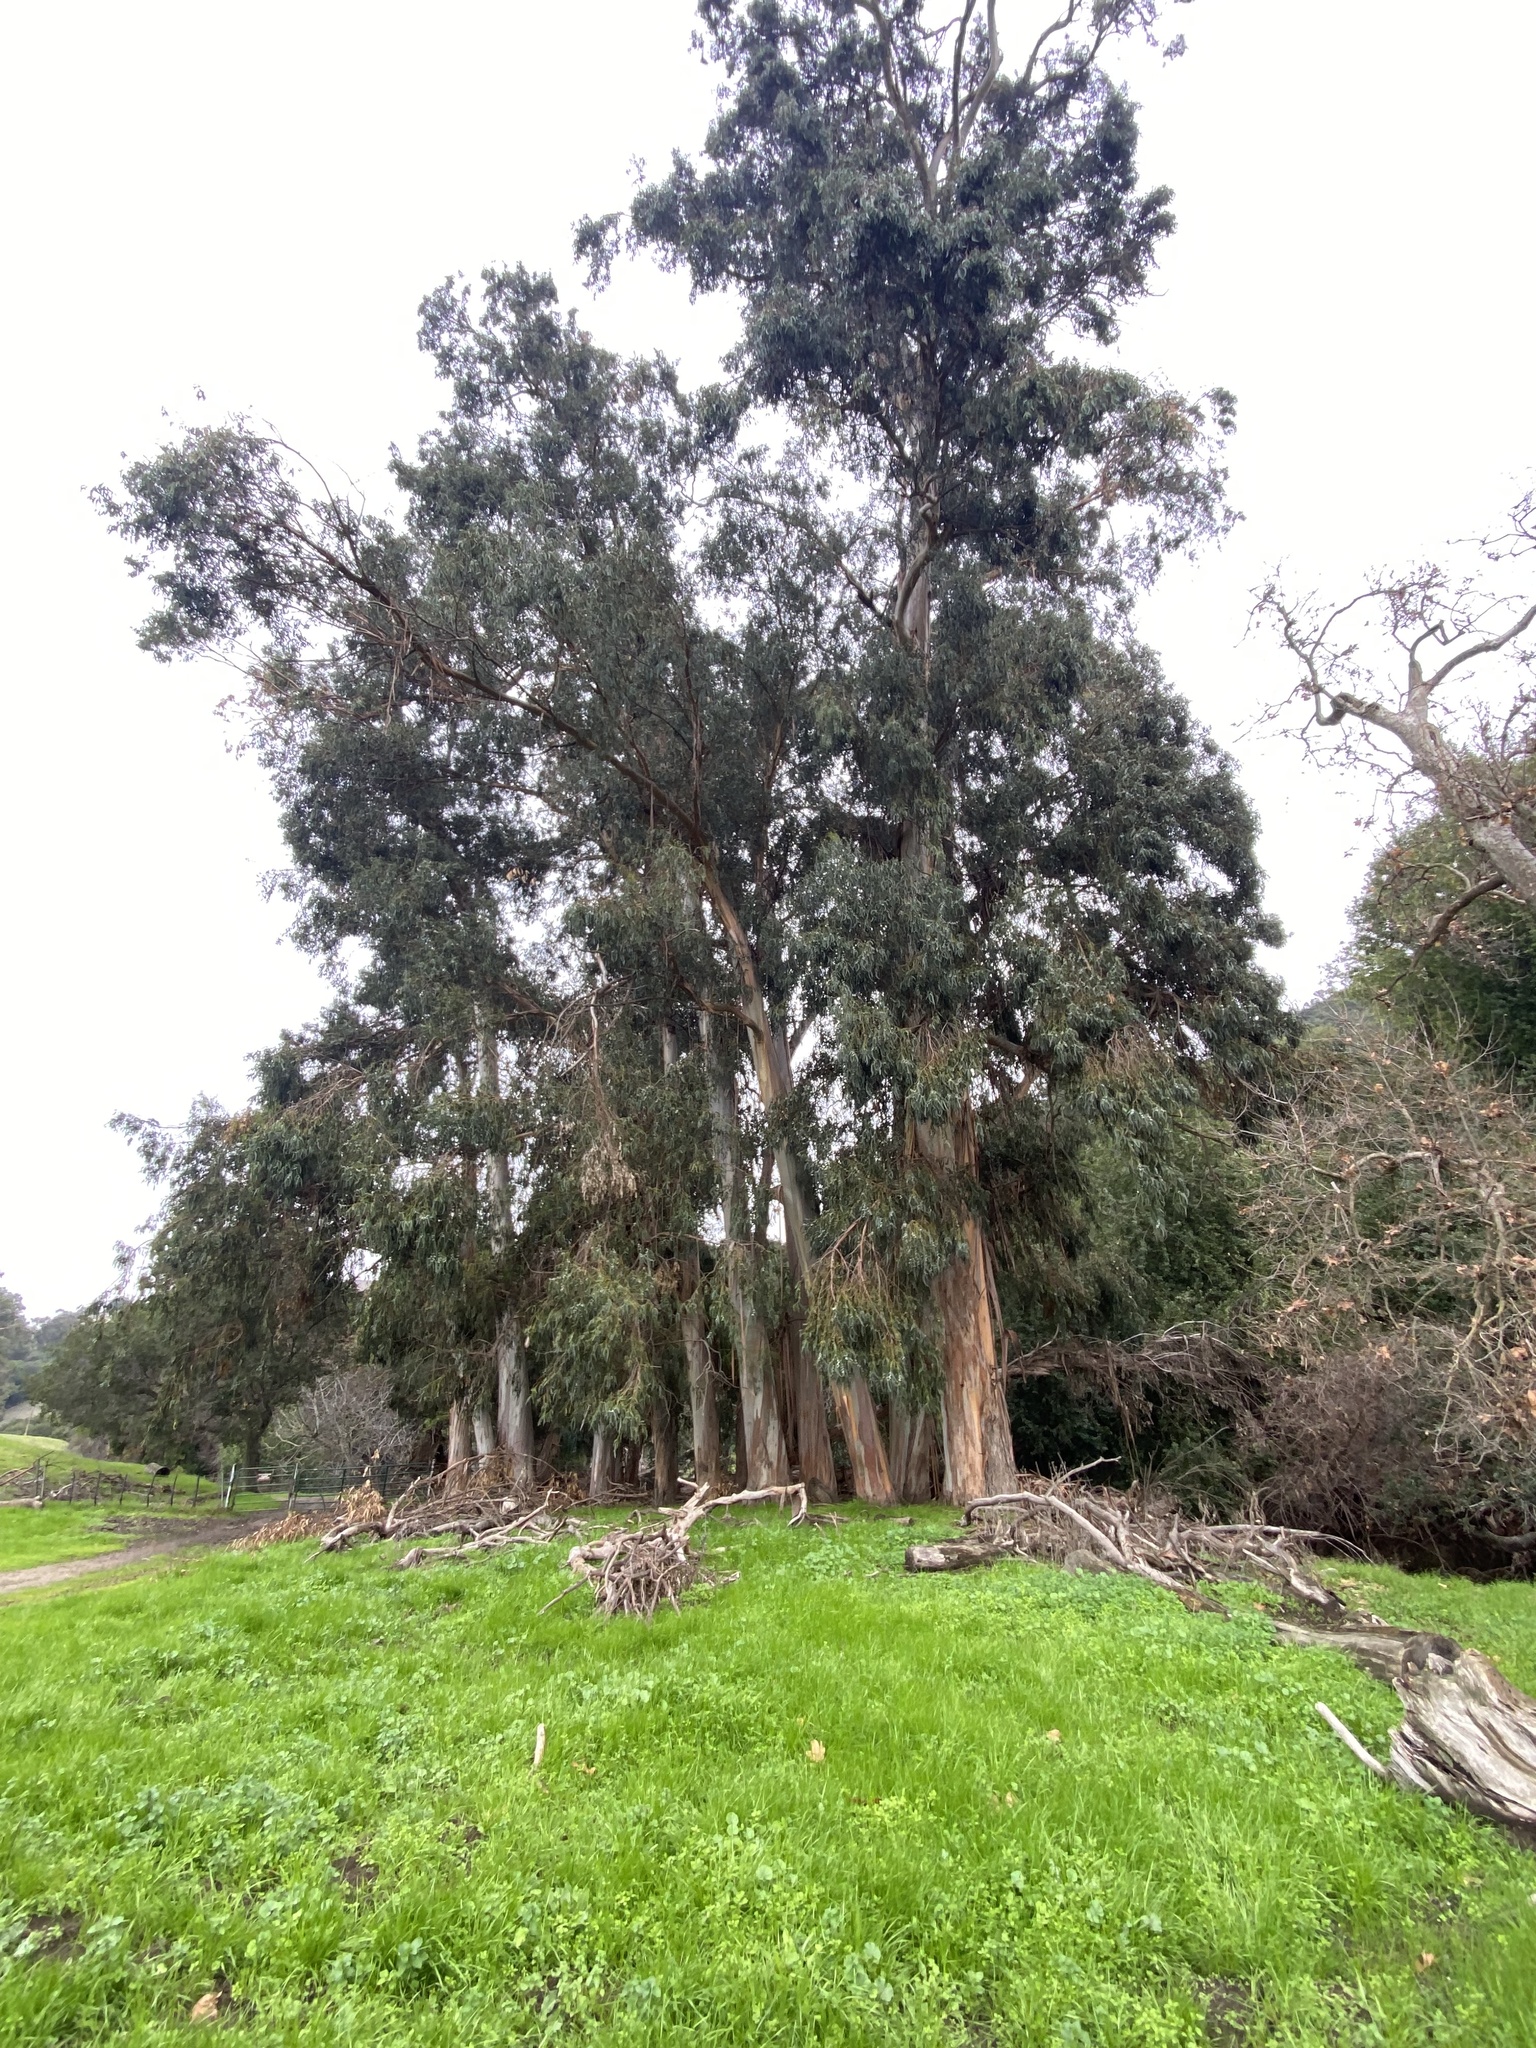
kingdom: Plantae
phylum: Tracheophyta
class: Magnoliopsida
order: Myrtales
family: Myrtaceae
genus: Eucalyptus
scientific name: Eucalyptus globulus
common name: Southern blue-gum
